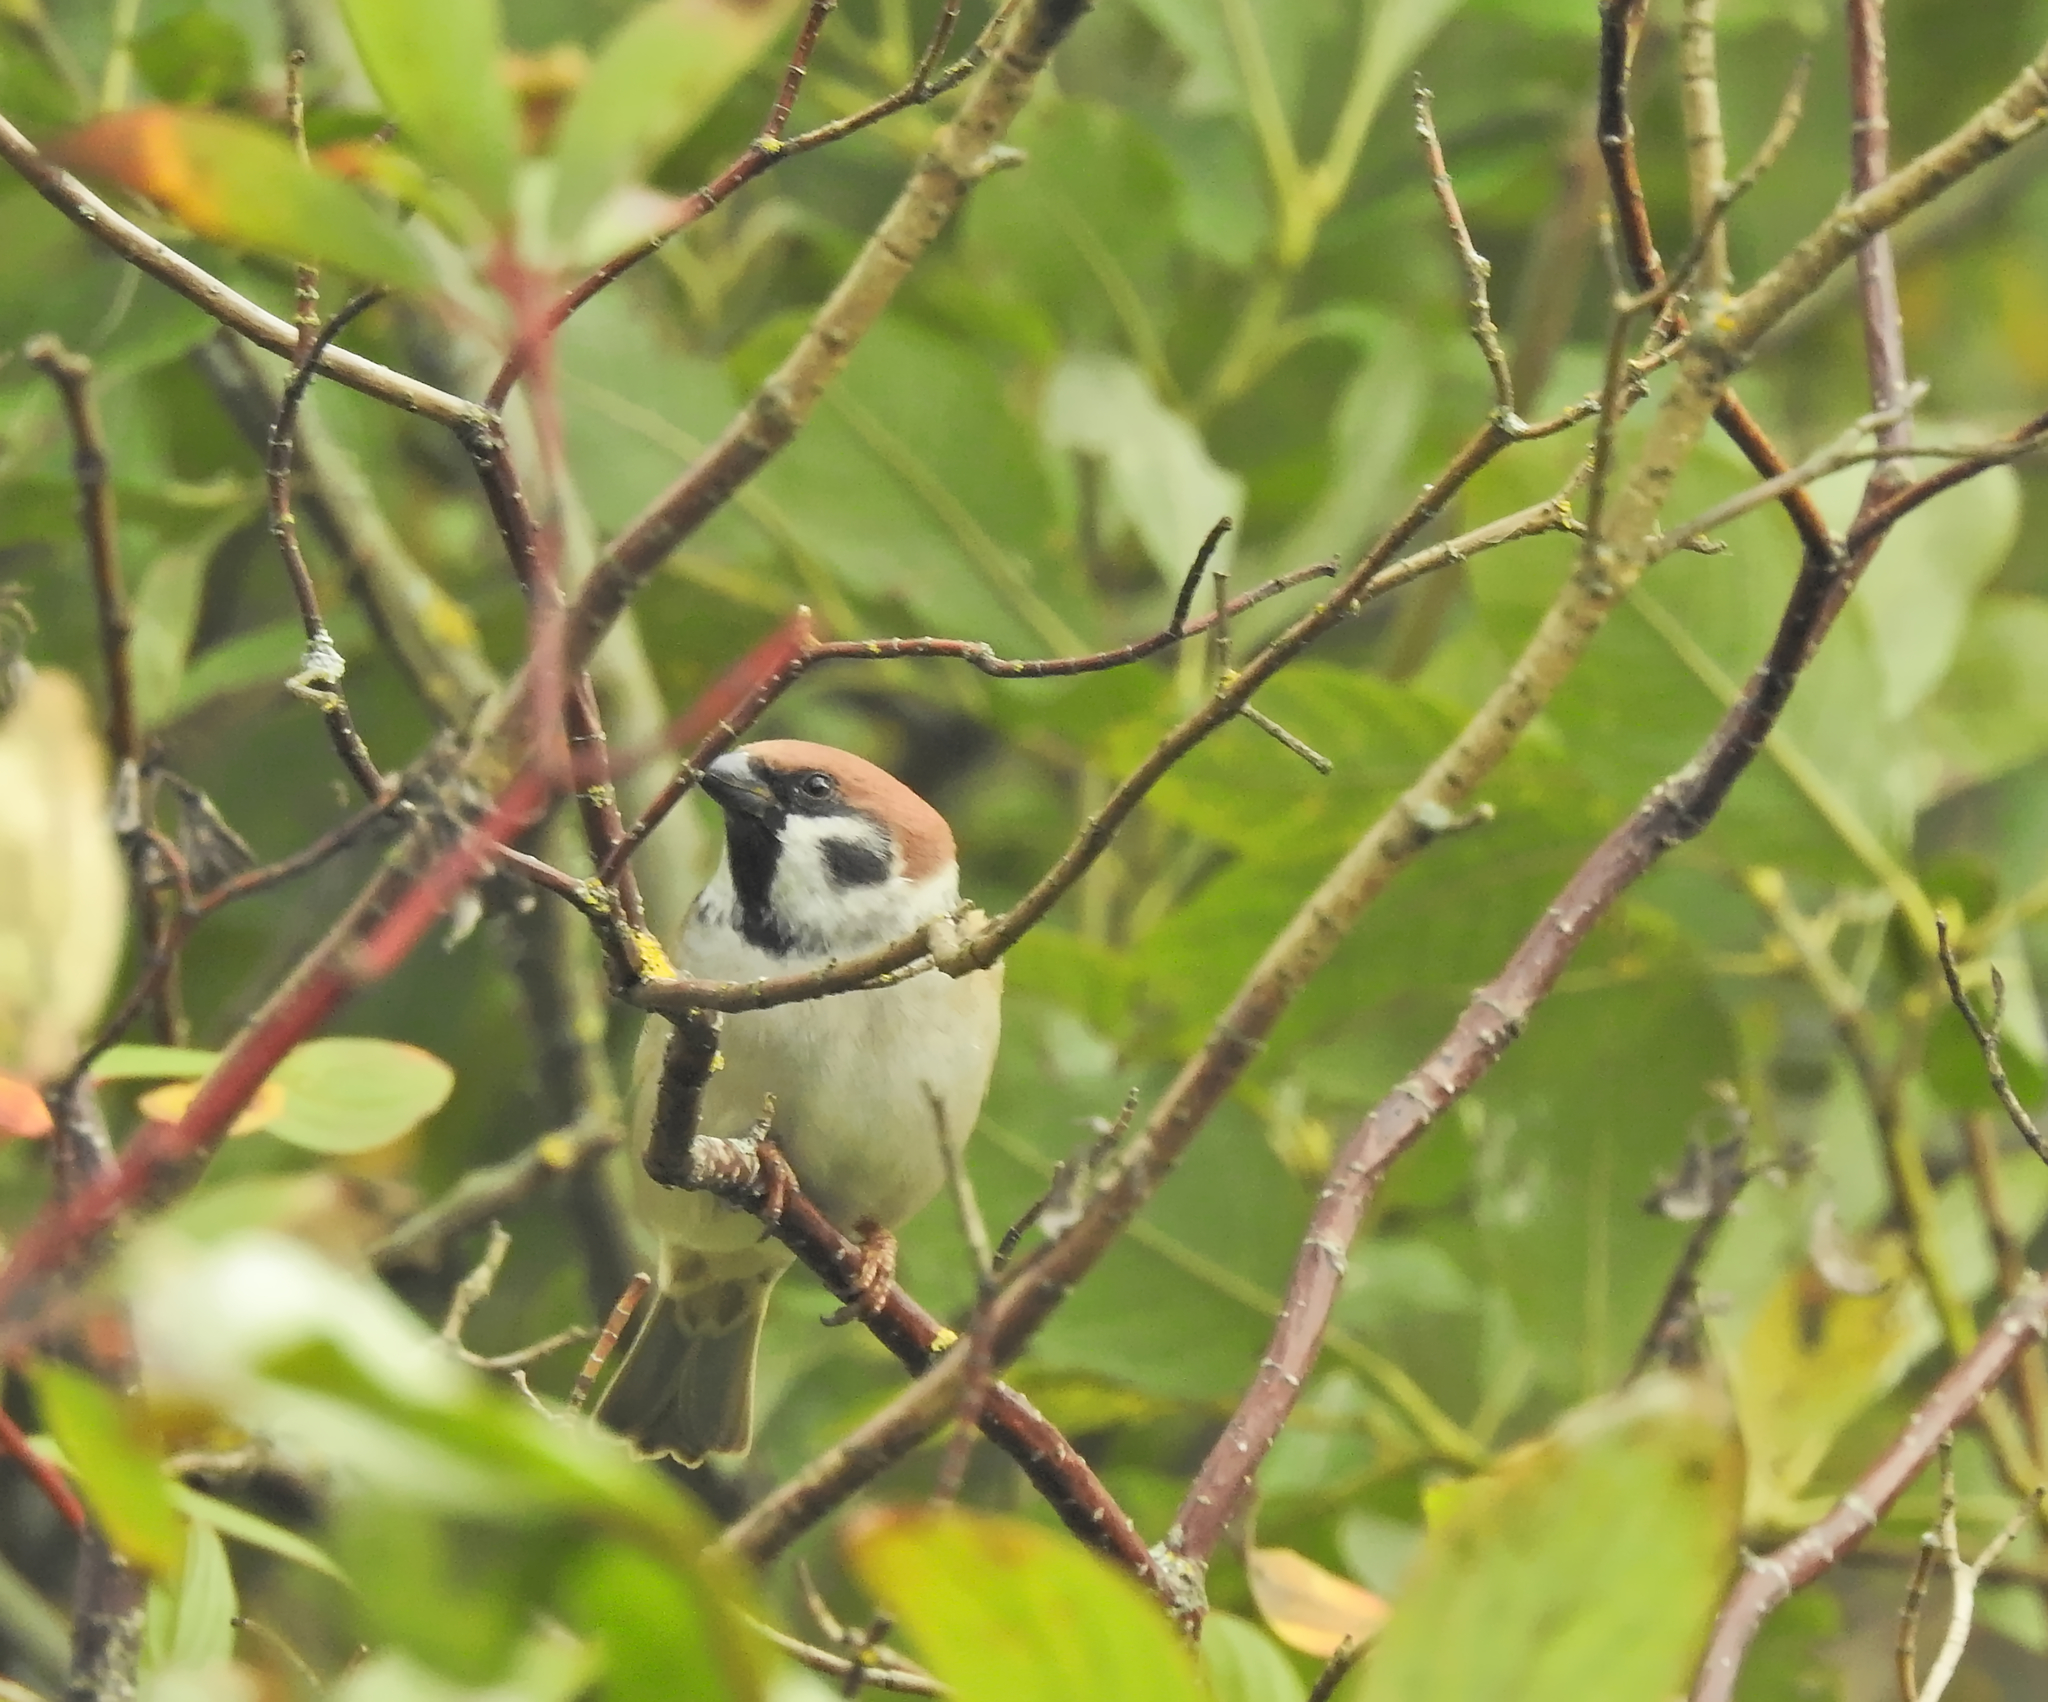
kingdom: Animalia
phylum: Chordata
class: Aves
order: Passeriformes
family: Passeridae
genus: Passer
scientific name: Passer montanus
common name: Eurasian tree sparrow
